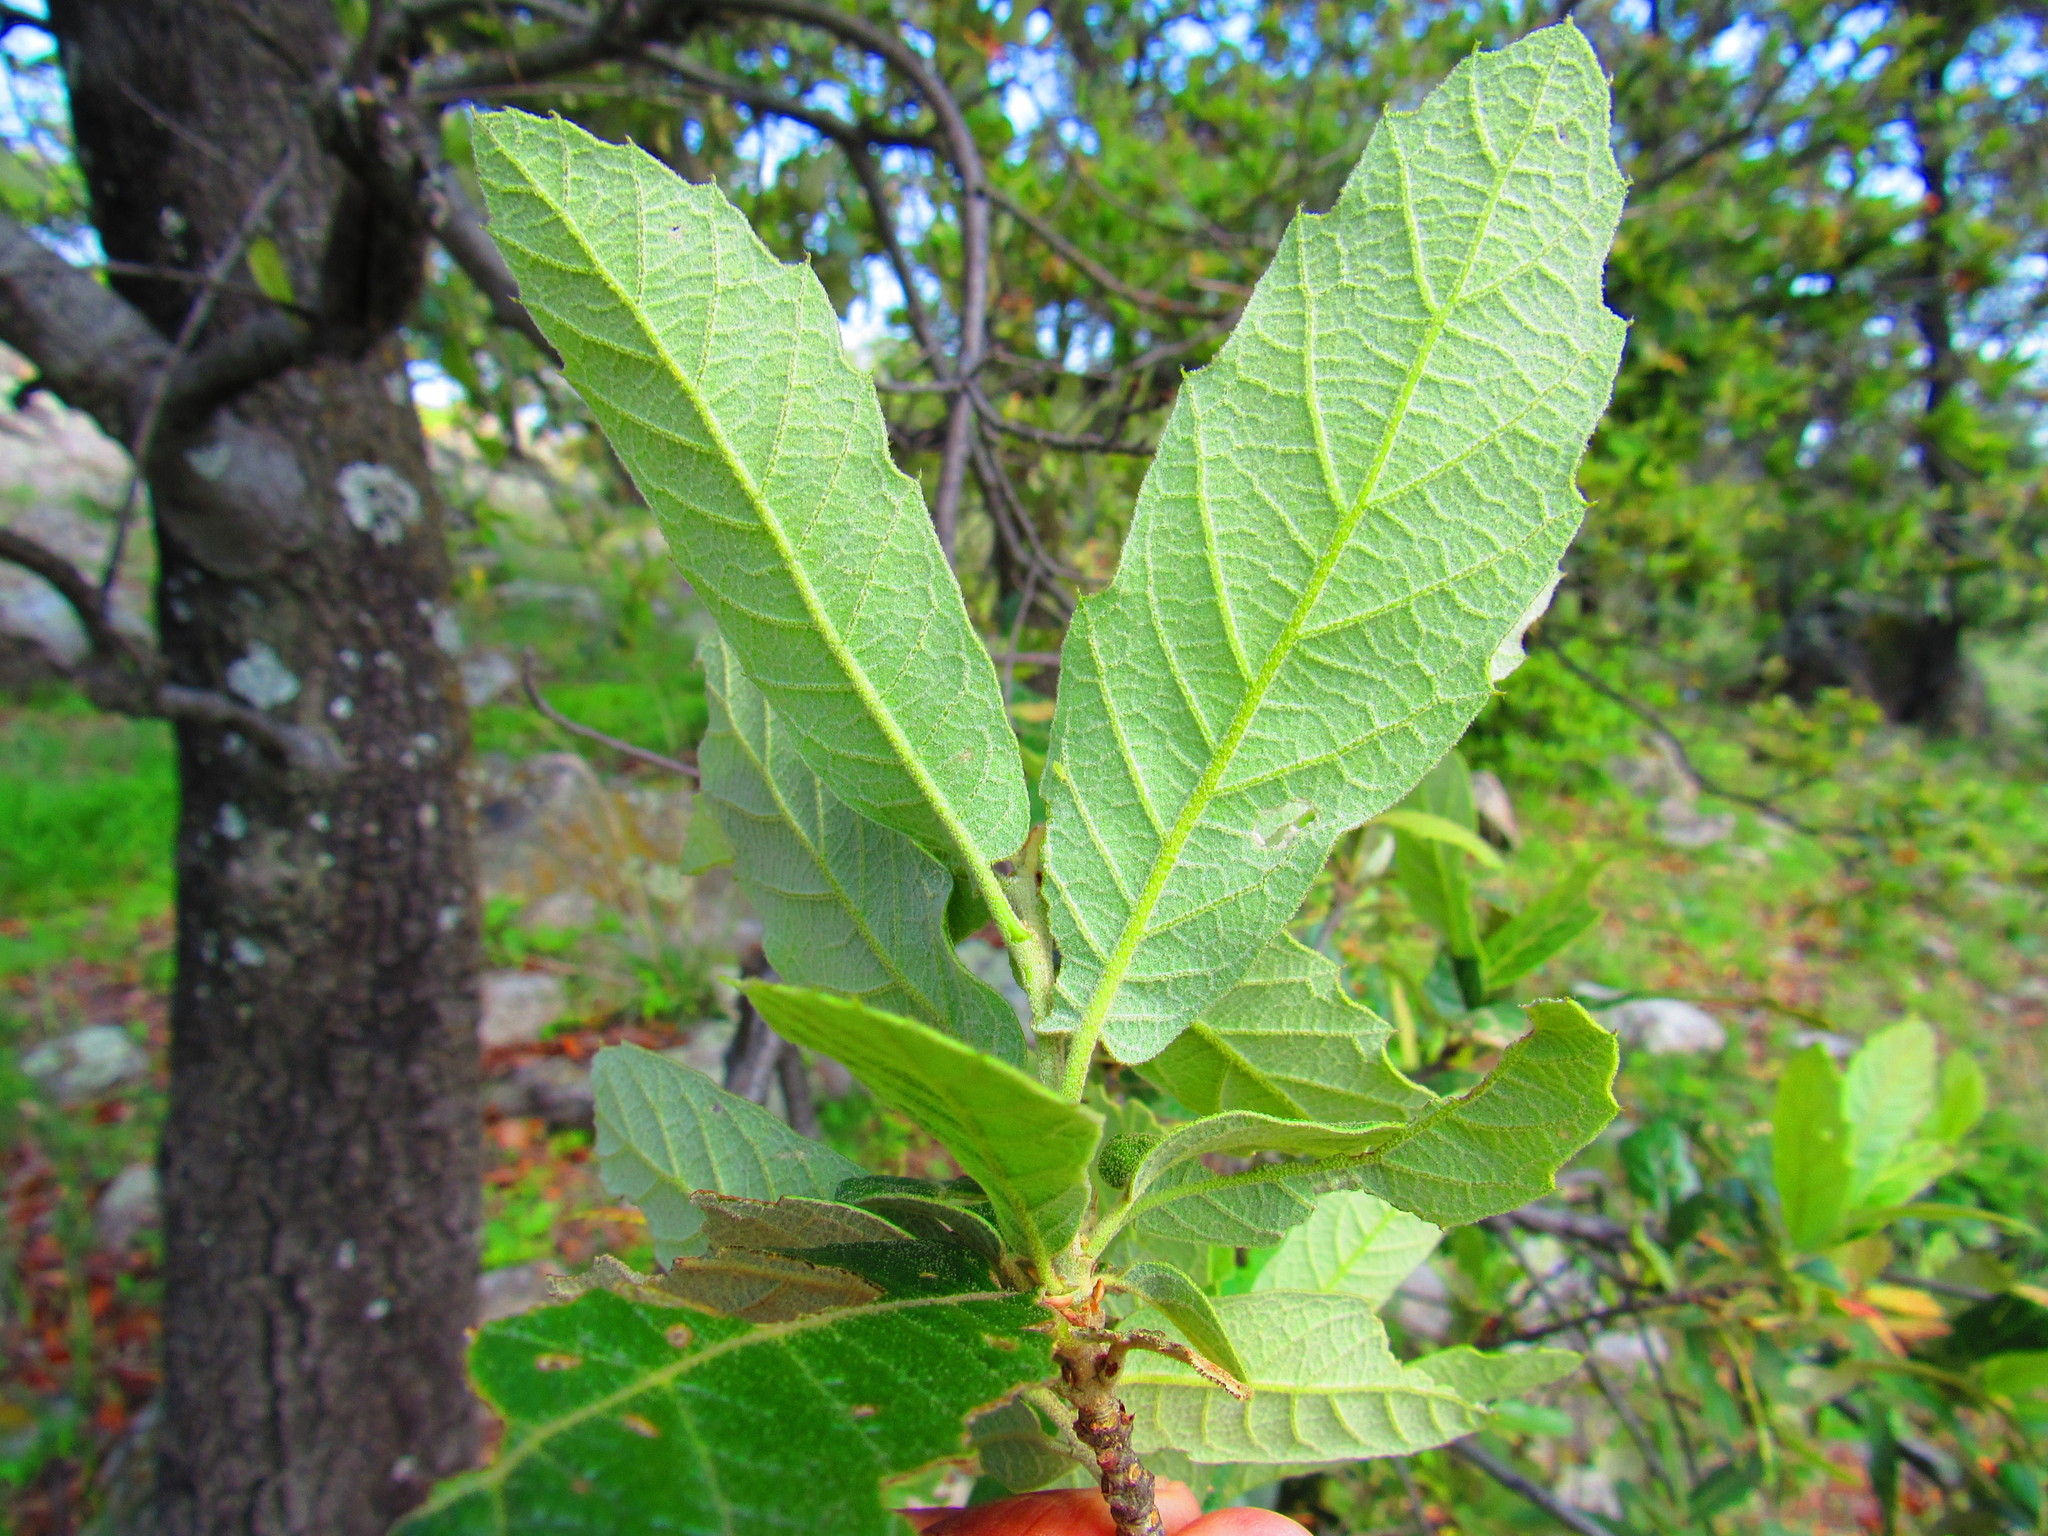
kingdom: Plantae
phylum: Tracheophyta
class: Magnoliopsida
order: Fagales
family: Fagaceae
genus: Quercus
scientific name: Quercus castanea
